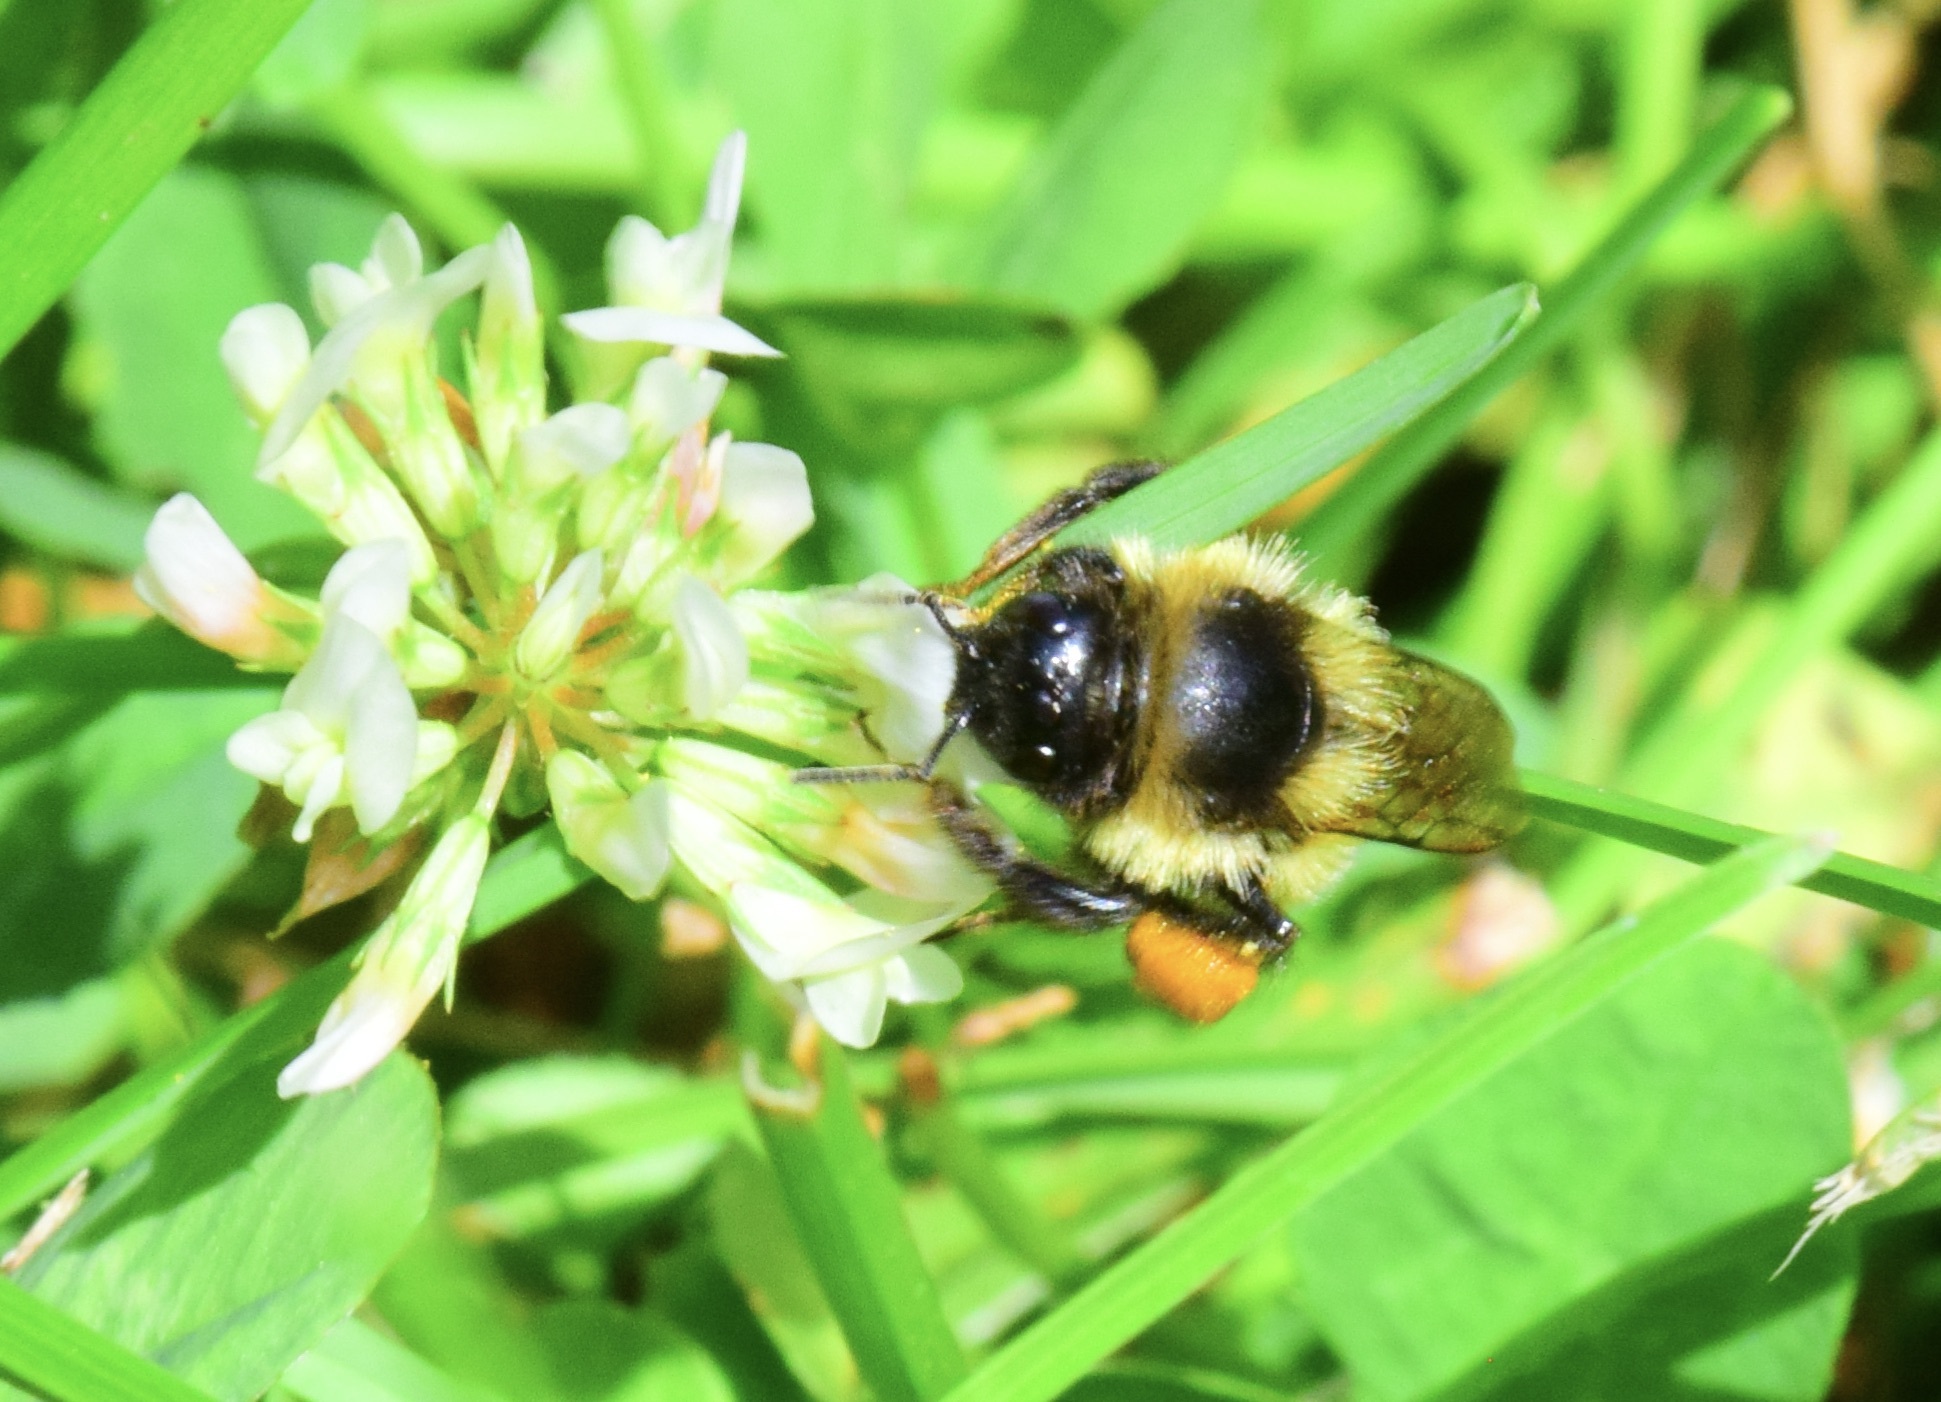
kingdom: Animalia
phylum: Arthropoda
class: Insecta
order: Hymenoptera
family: Apidae
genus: Bombus
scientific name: Bombus ternarius
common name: Tri-colored bumble bee
